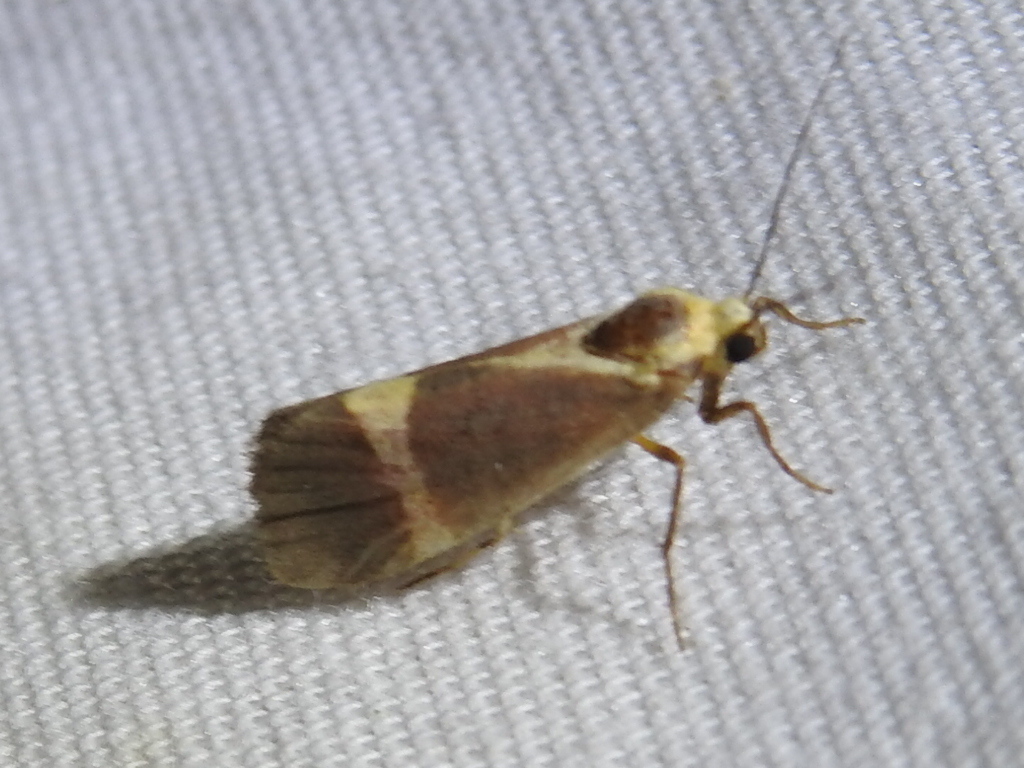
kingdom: Animalia
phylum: Arthropoda
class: Insecta
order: Lepidoptera
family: Erebidae
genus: Cisthene
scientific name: Cisthene tenuifascia
